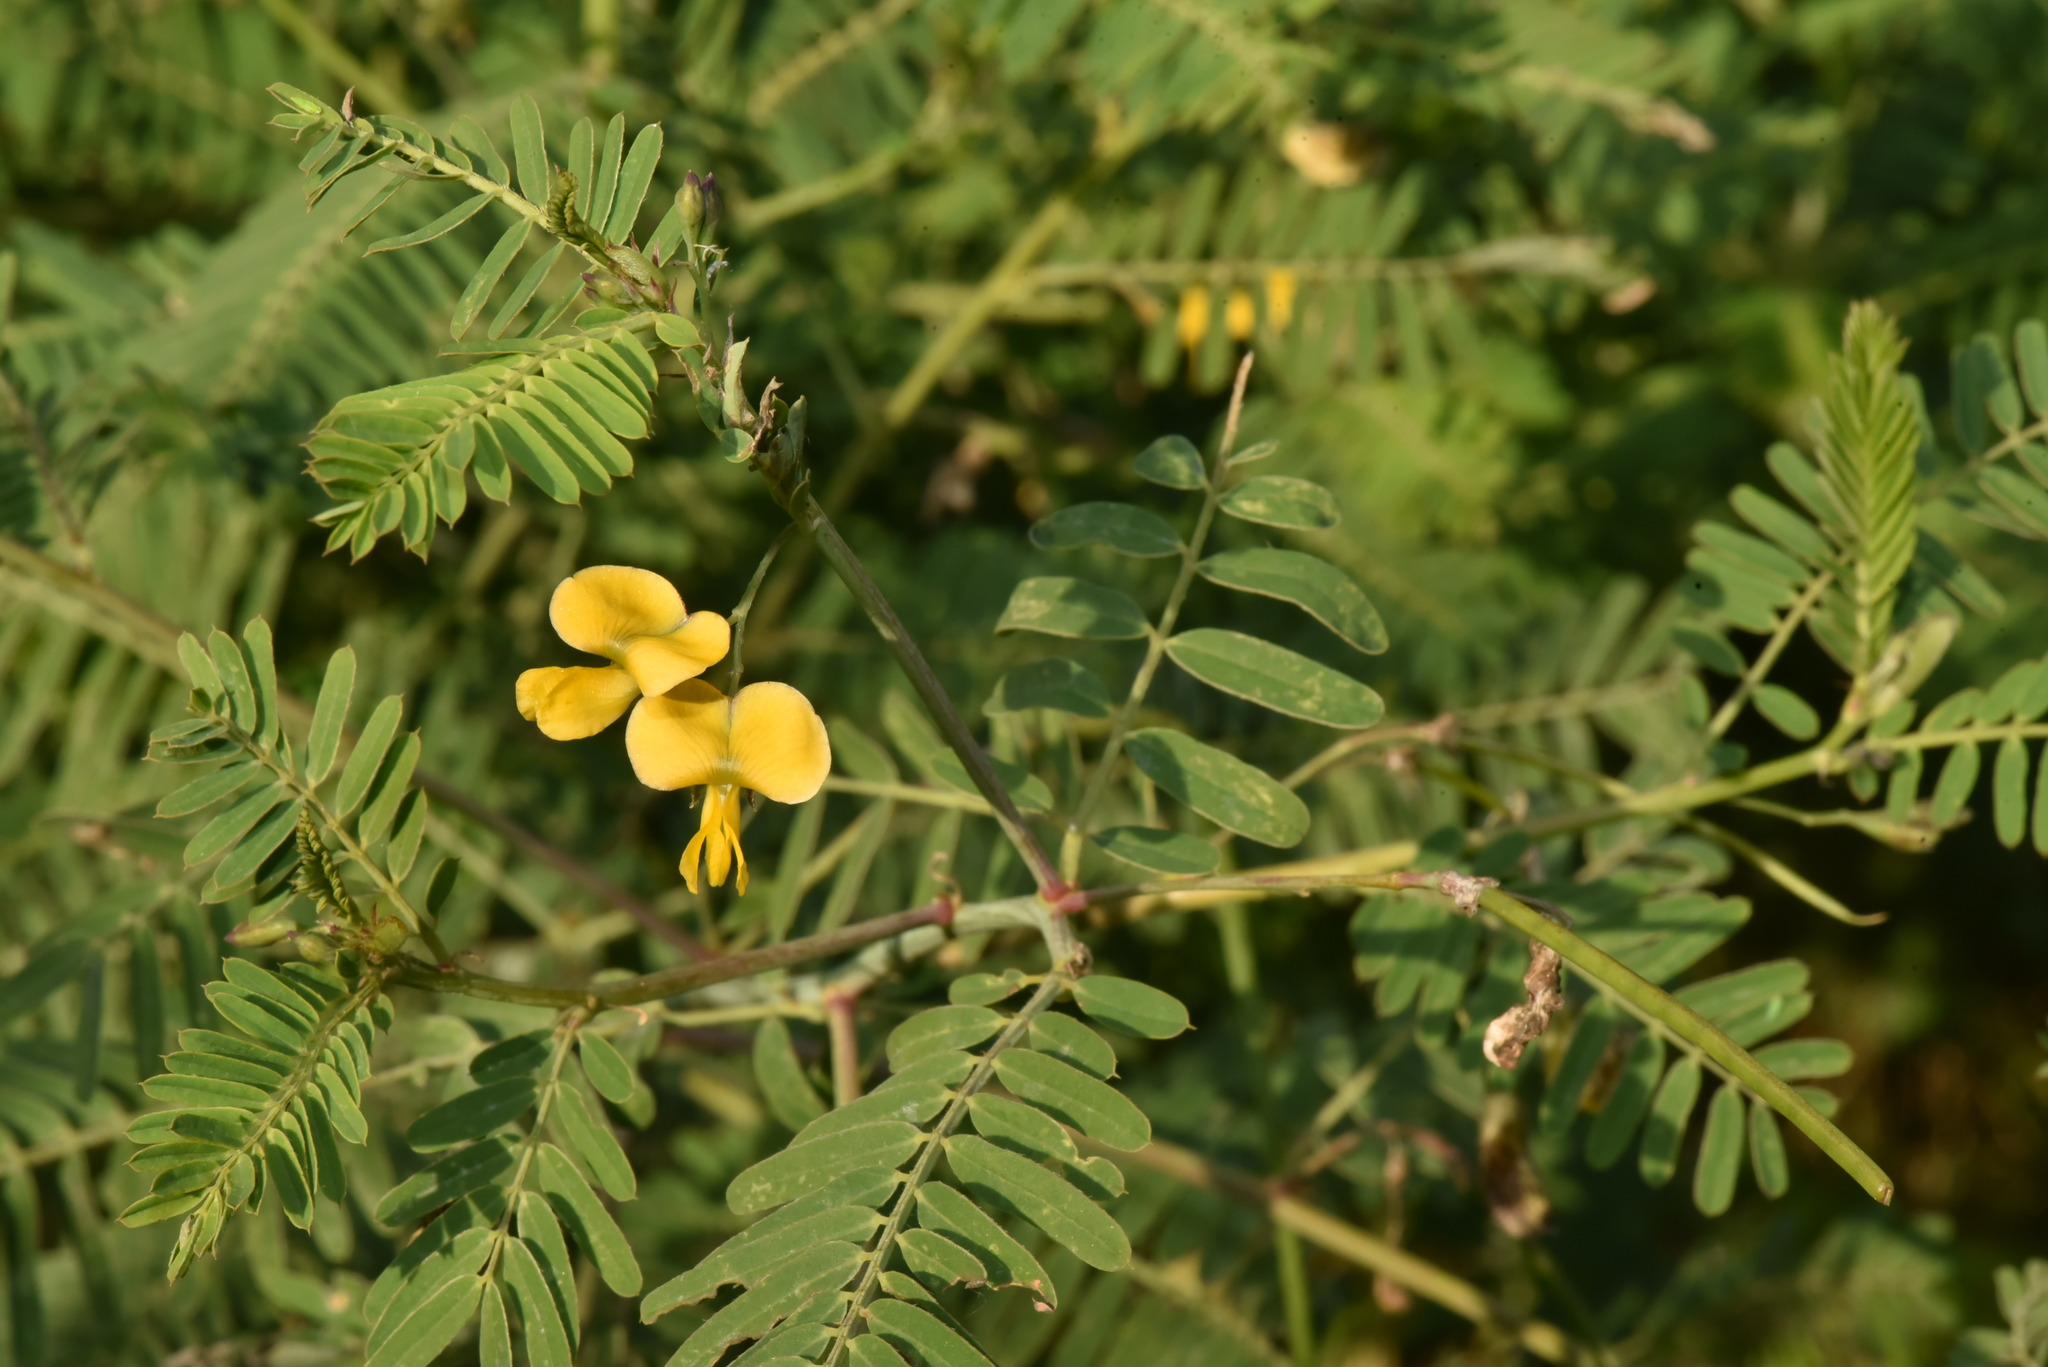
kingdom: Plantae
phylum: Tracheophyta
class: Magnoliopsida
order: Fabales
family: Fabaceae
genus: Sesbania
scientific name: Sesbania cannabina
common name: Canicha
